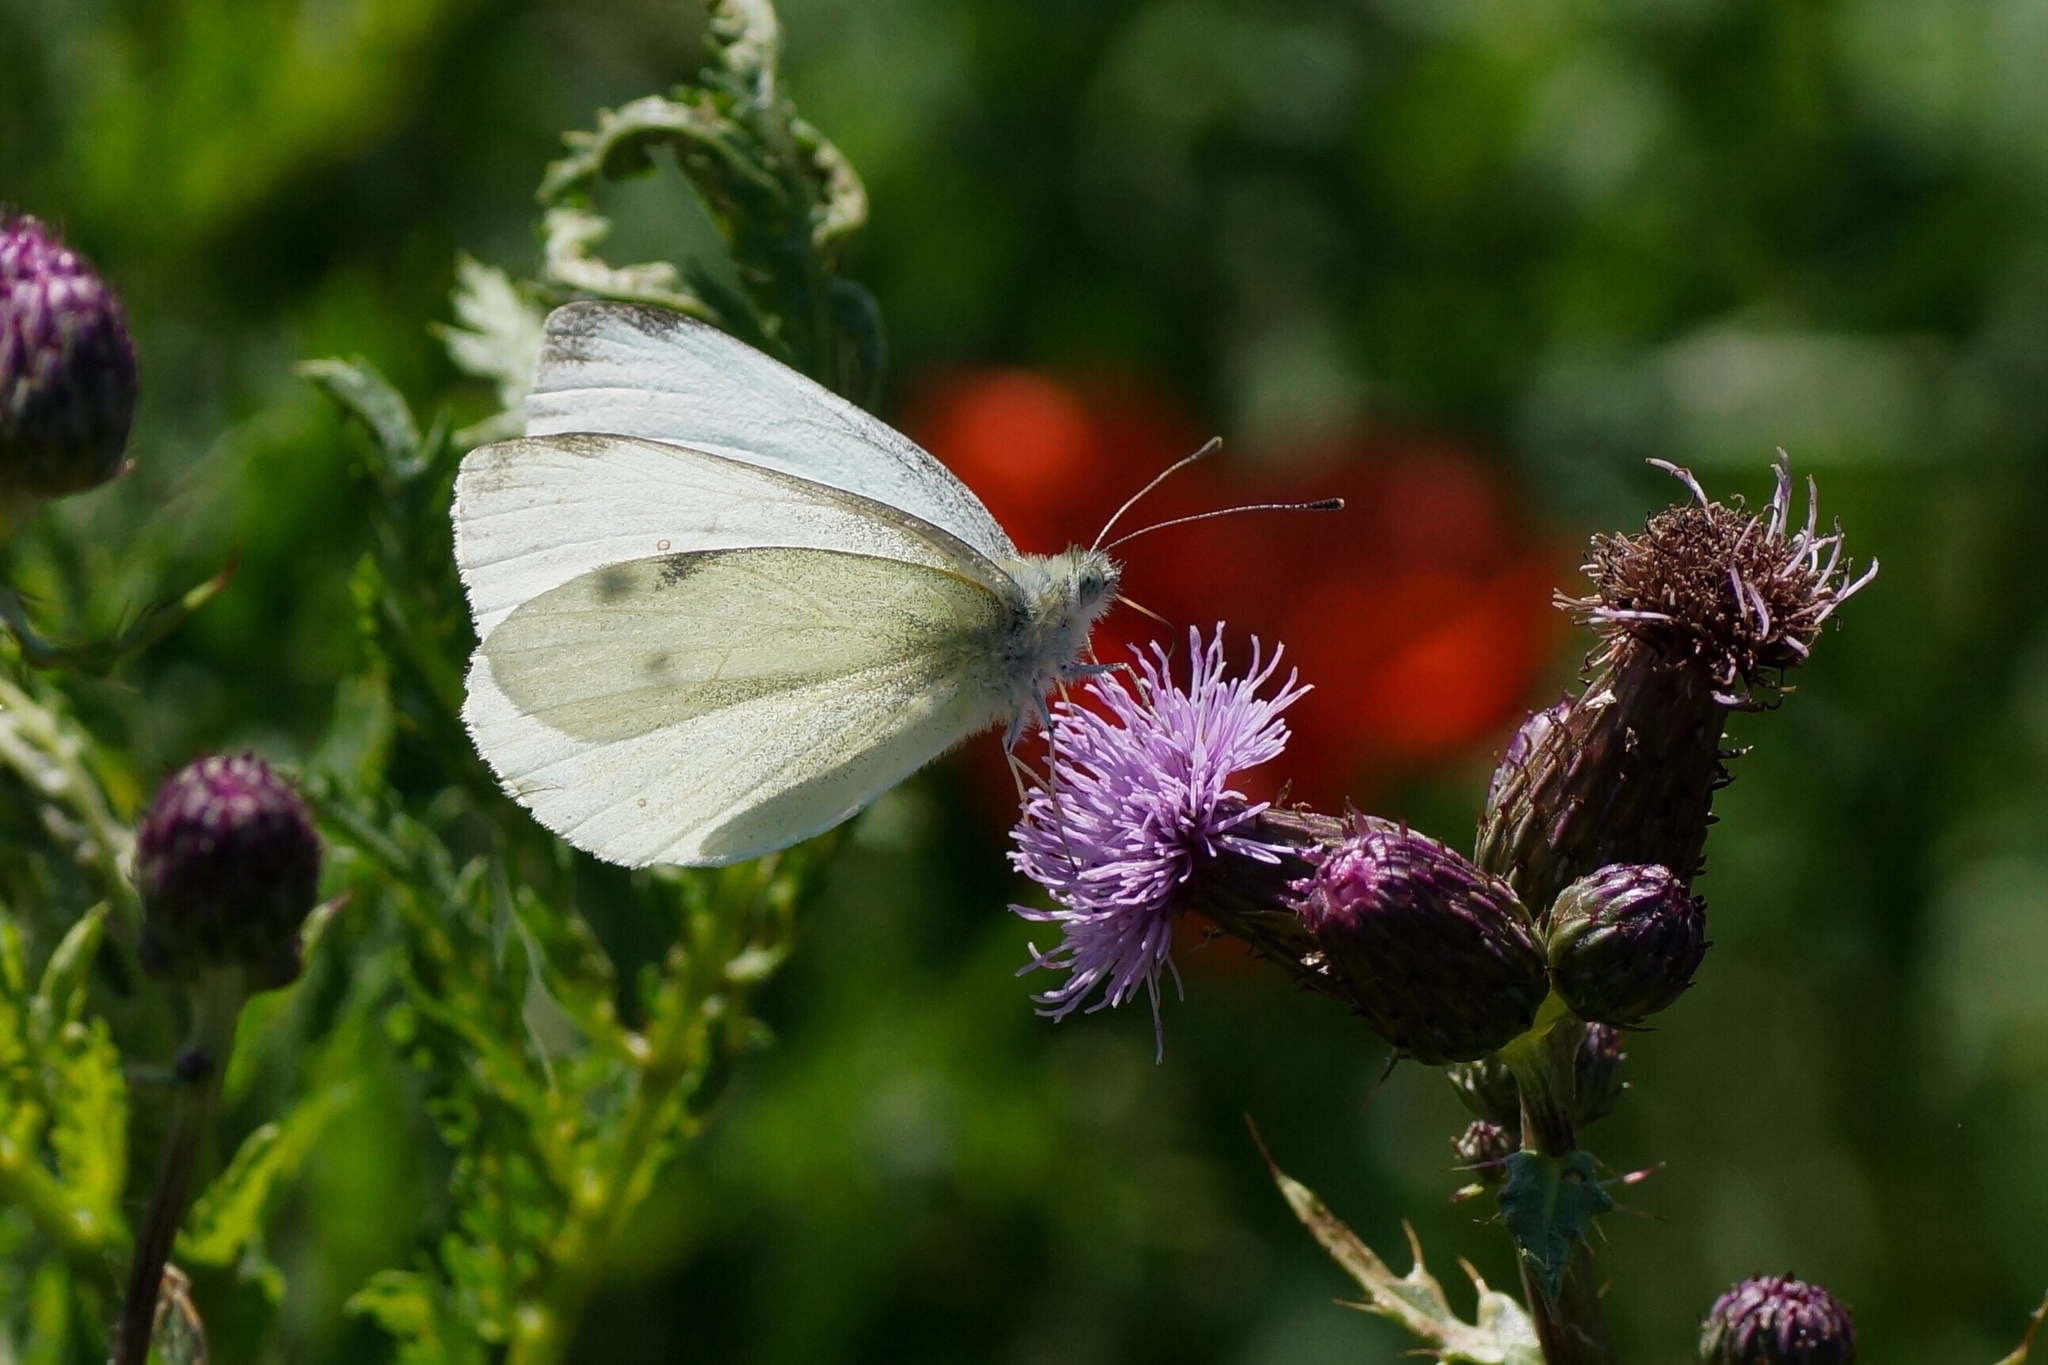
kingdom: Animalia
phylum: Arthropoda
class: Insecta
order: Lepidoptera
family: Pieridae
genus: Pieris
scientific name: Pieris rapae
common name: Small white
